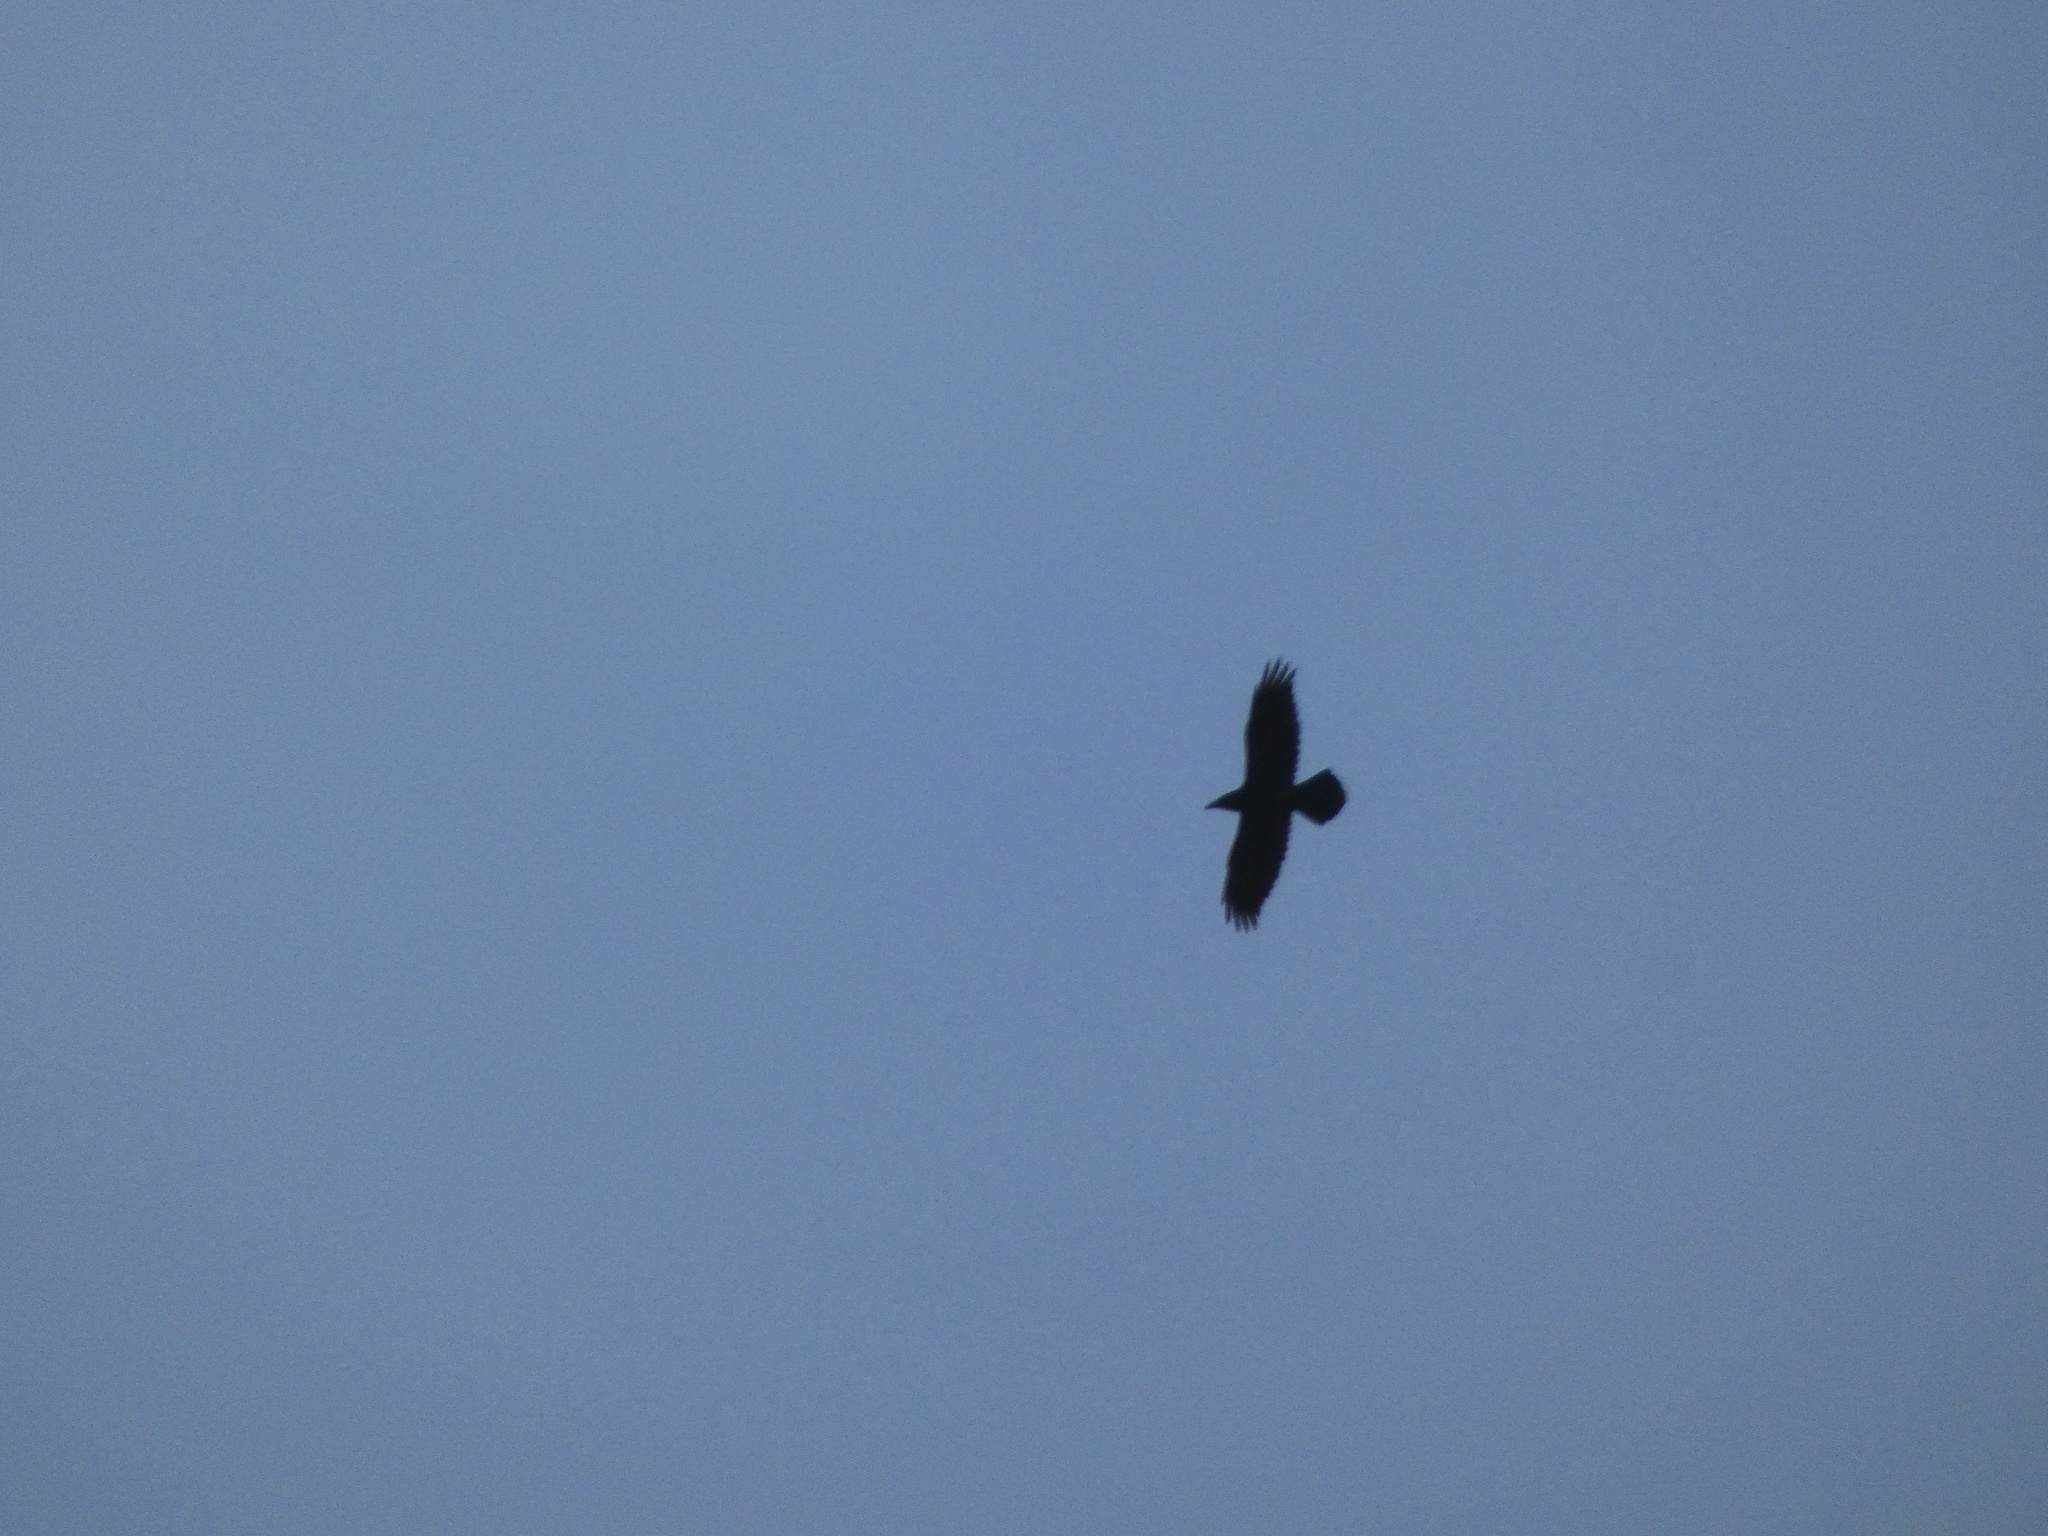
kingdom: Animalia
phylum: Chordata
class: Aves
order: Passeriformes
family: Corvidae
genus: Corvus
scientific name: Corvus corax
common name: Common raven
